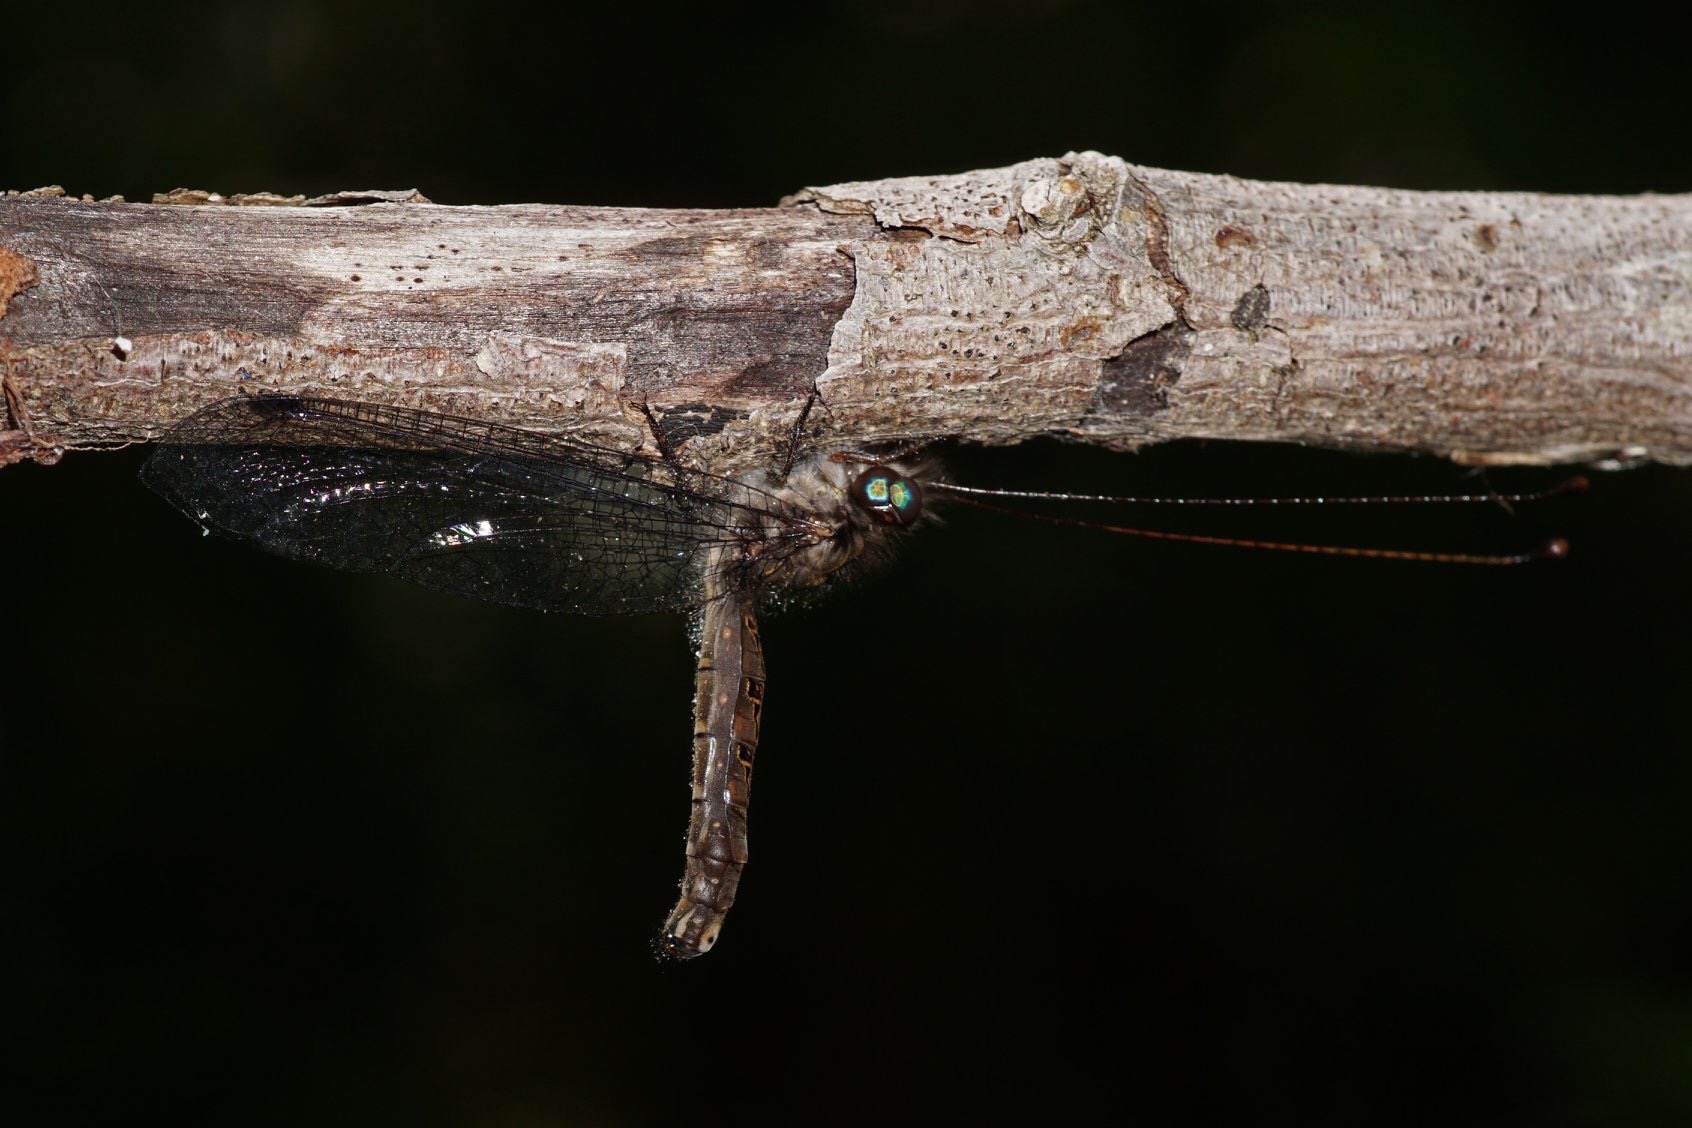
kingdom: Animalia
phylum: Arthropoda
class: Insecta
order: Neuroptera
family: Ascalaphidae
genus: Ululodes
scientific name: Ululodes macleayanus
